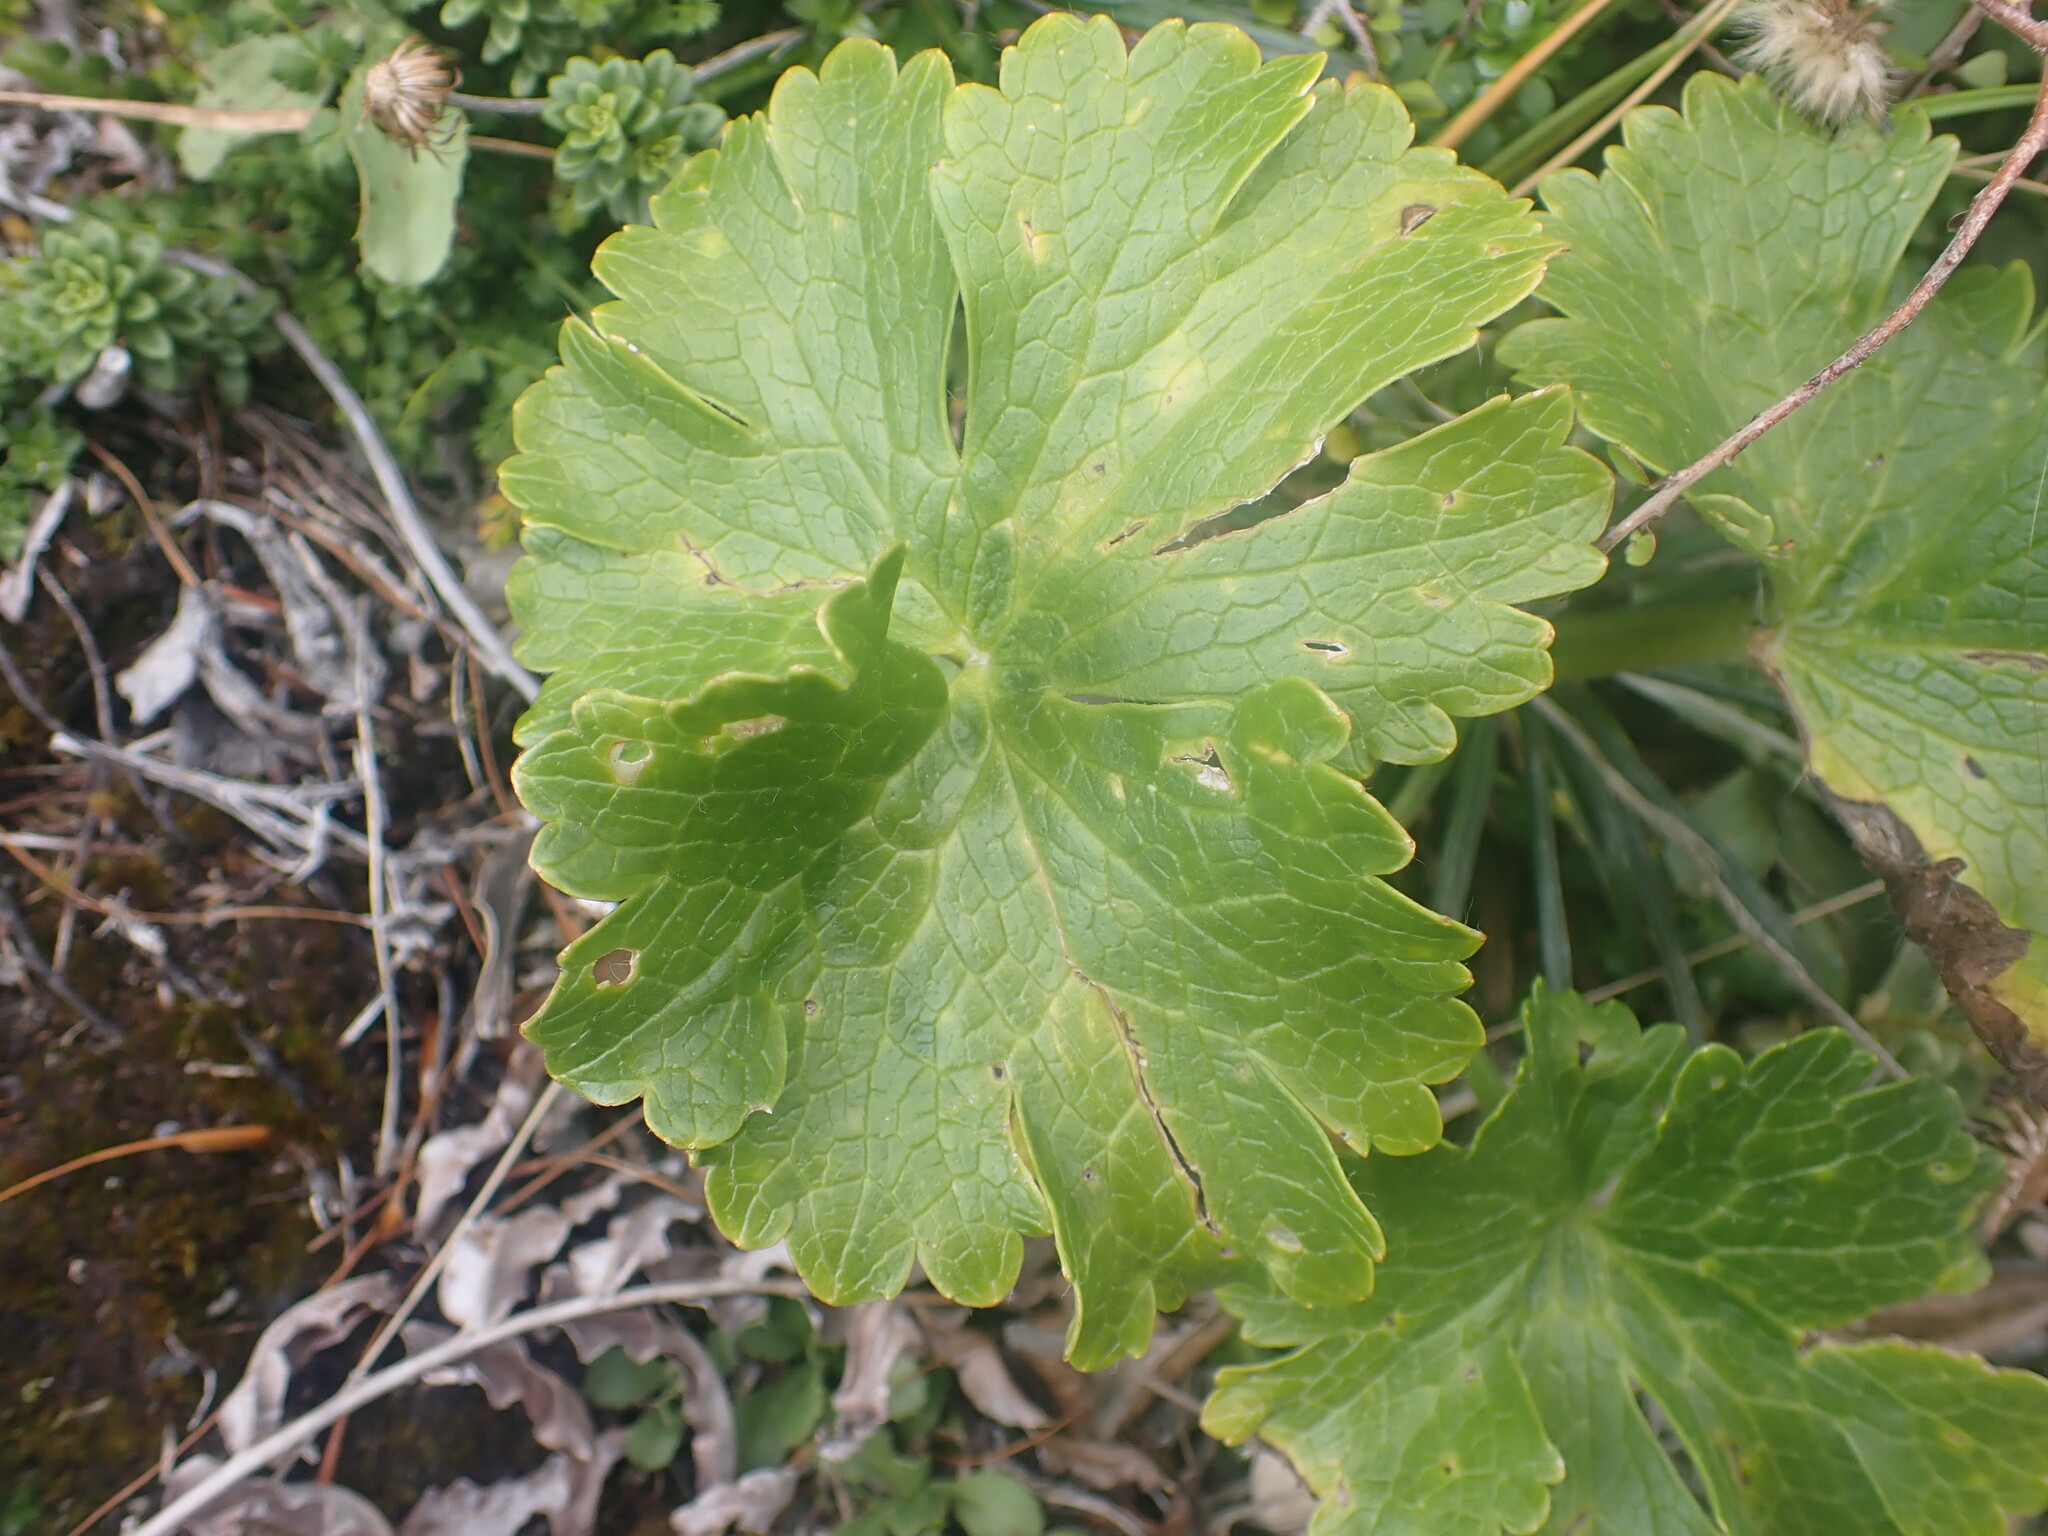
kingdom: Plantae
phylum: Tracheophyta
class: Magnoliopsida
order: Ranunculales
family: Ranunculaceae
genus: Ranunculus
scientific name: Ranunculus nivicola
